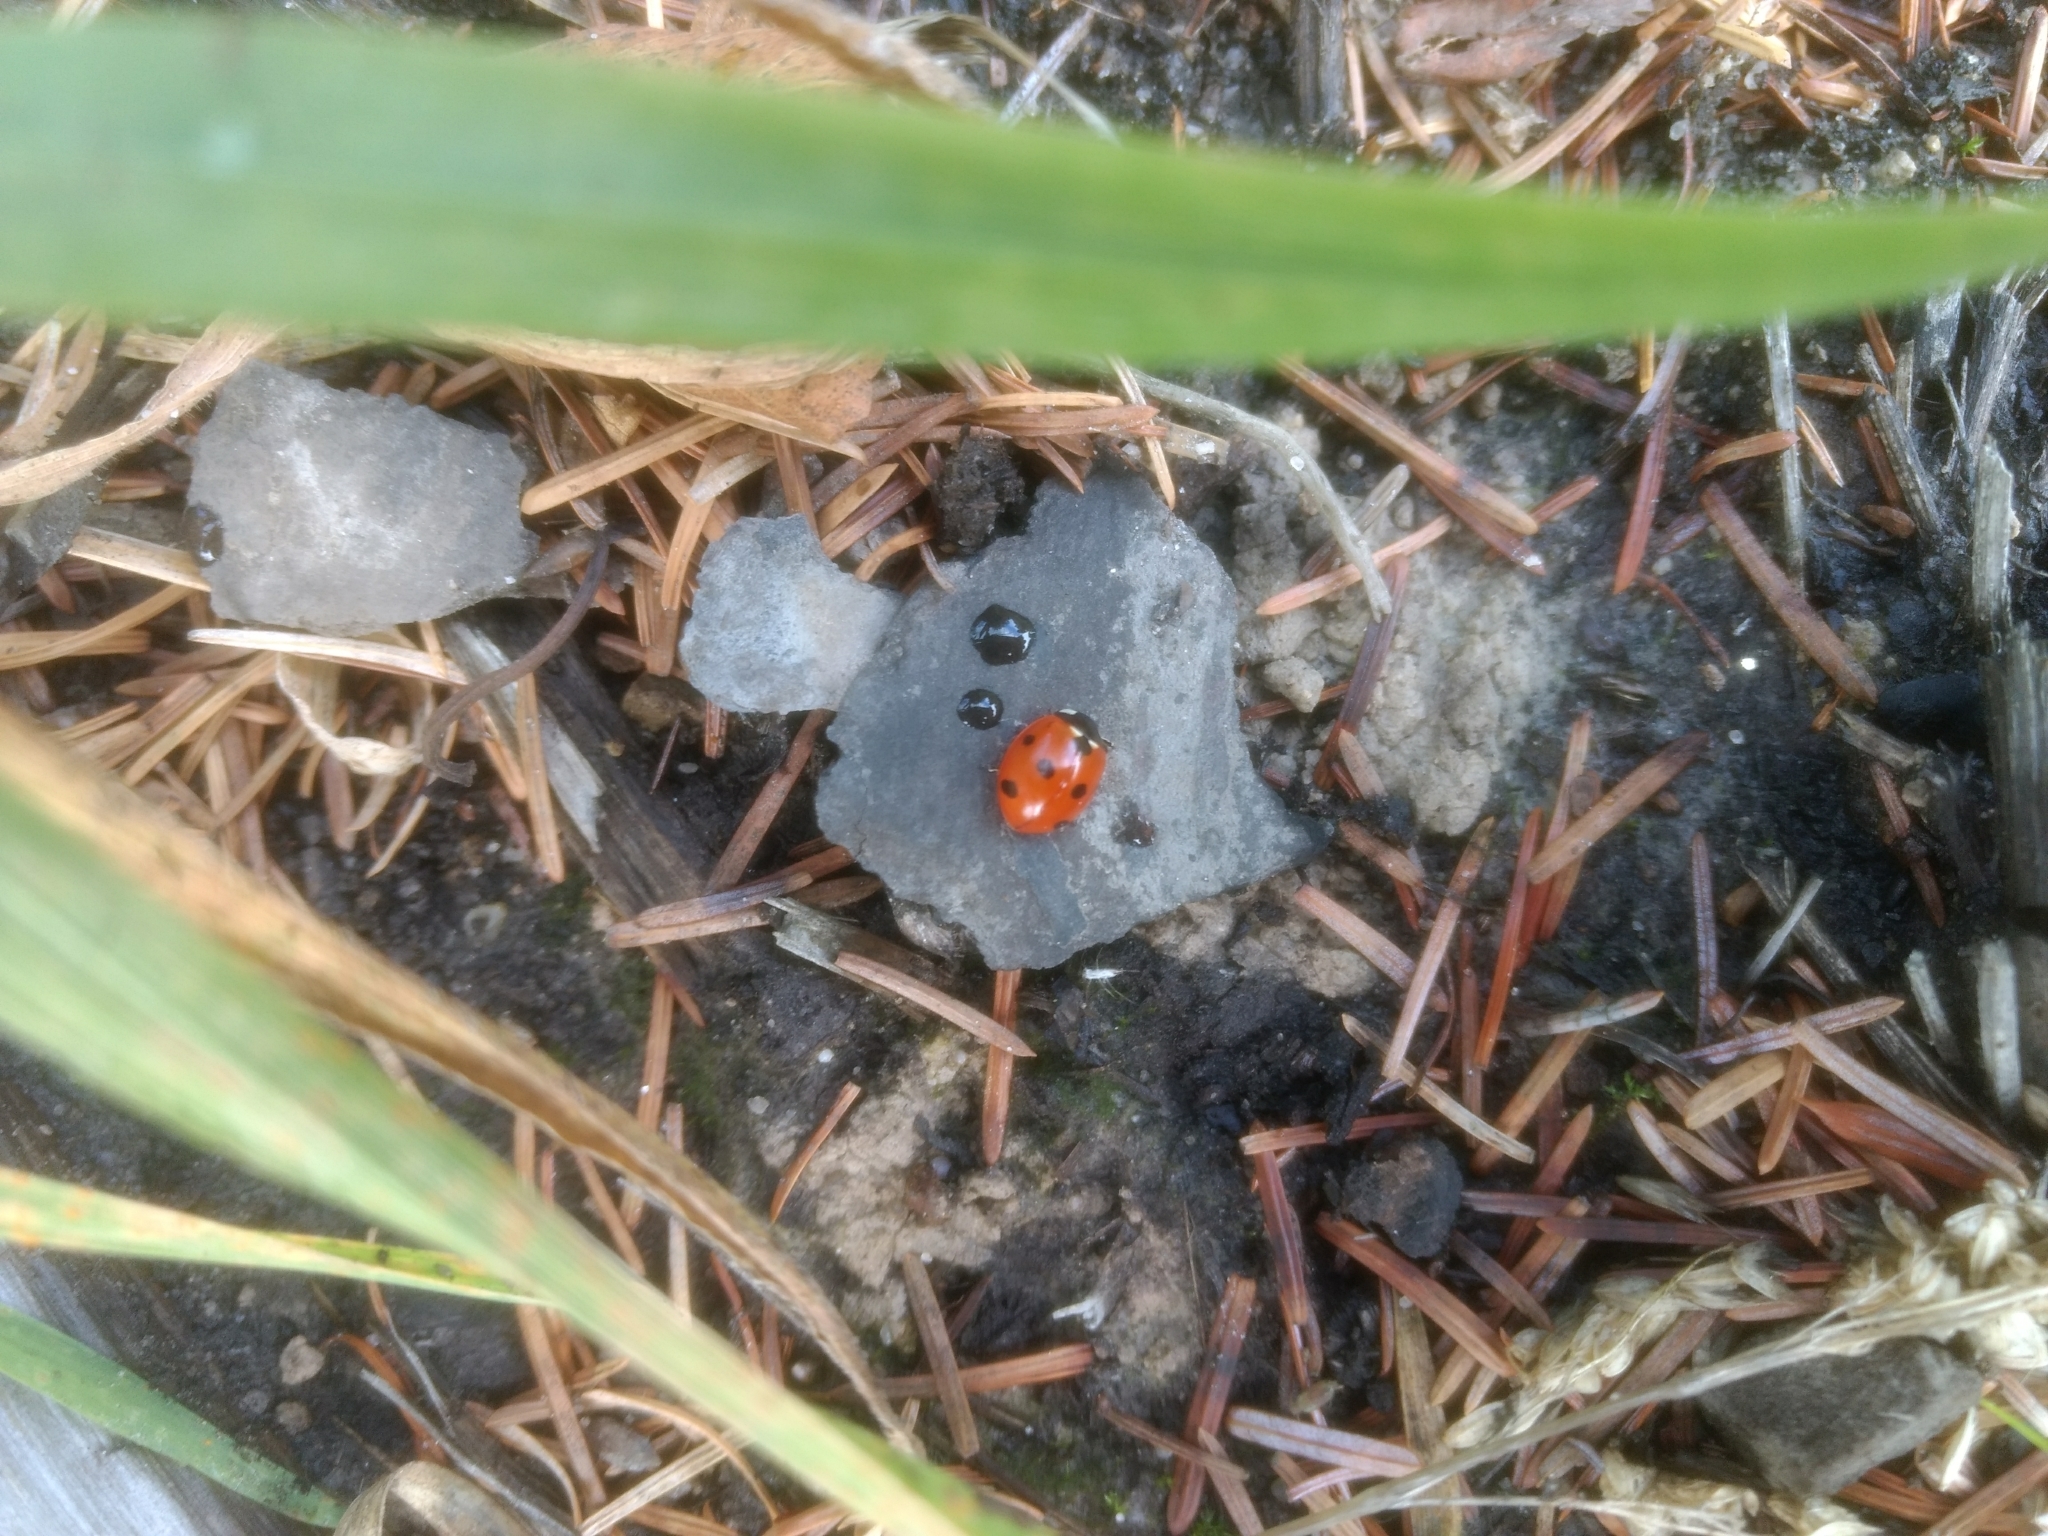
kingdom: Animalia
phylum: Arthropoda
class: Insecta
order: Coleoptera
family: Coccinellidae
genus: Coccinella
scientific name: Coccinella septempunctata
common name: Sevenspotted lady beetle
